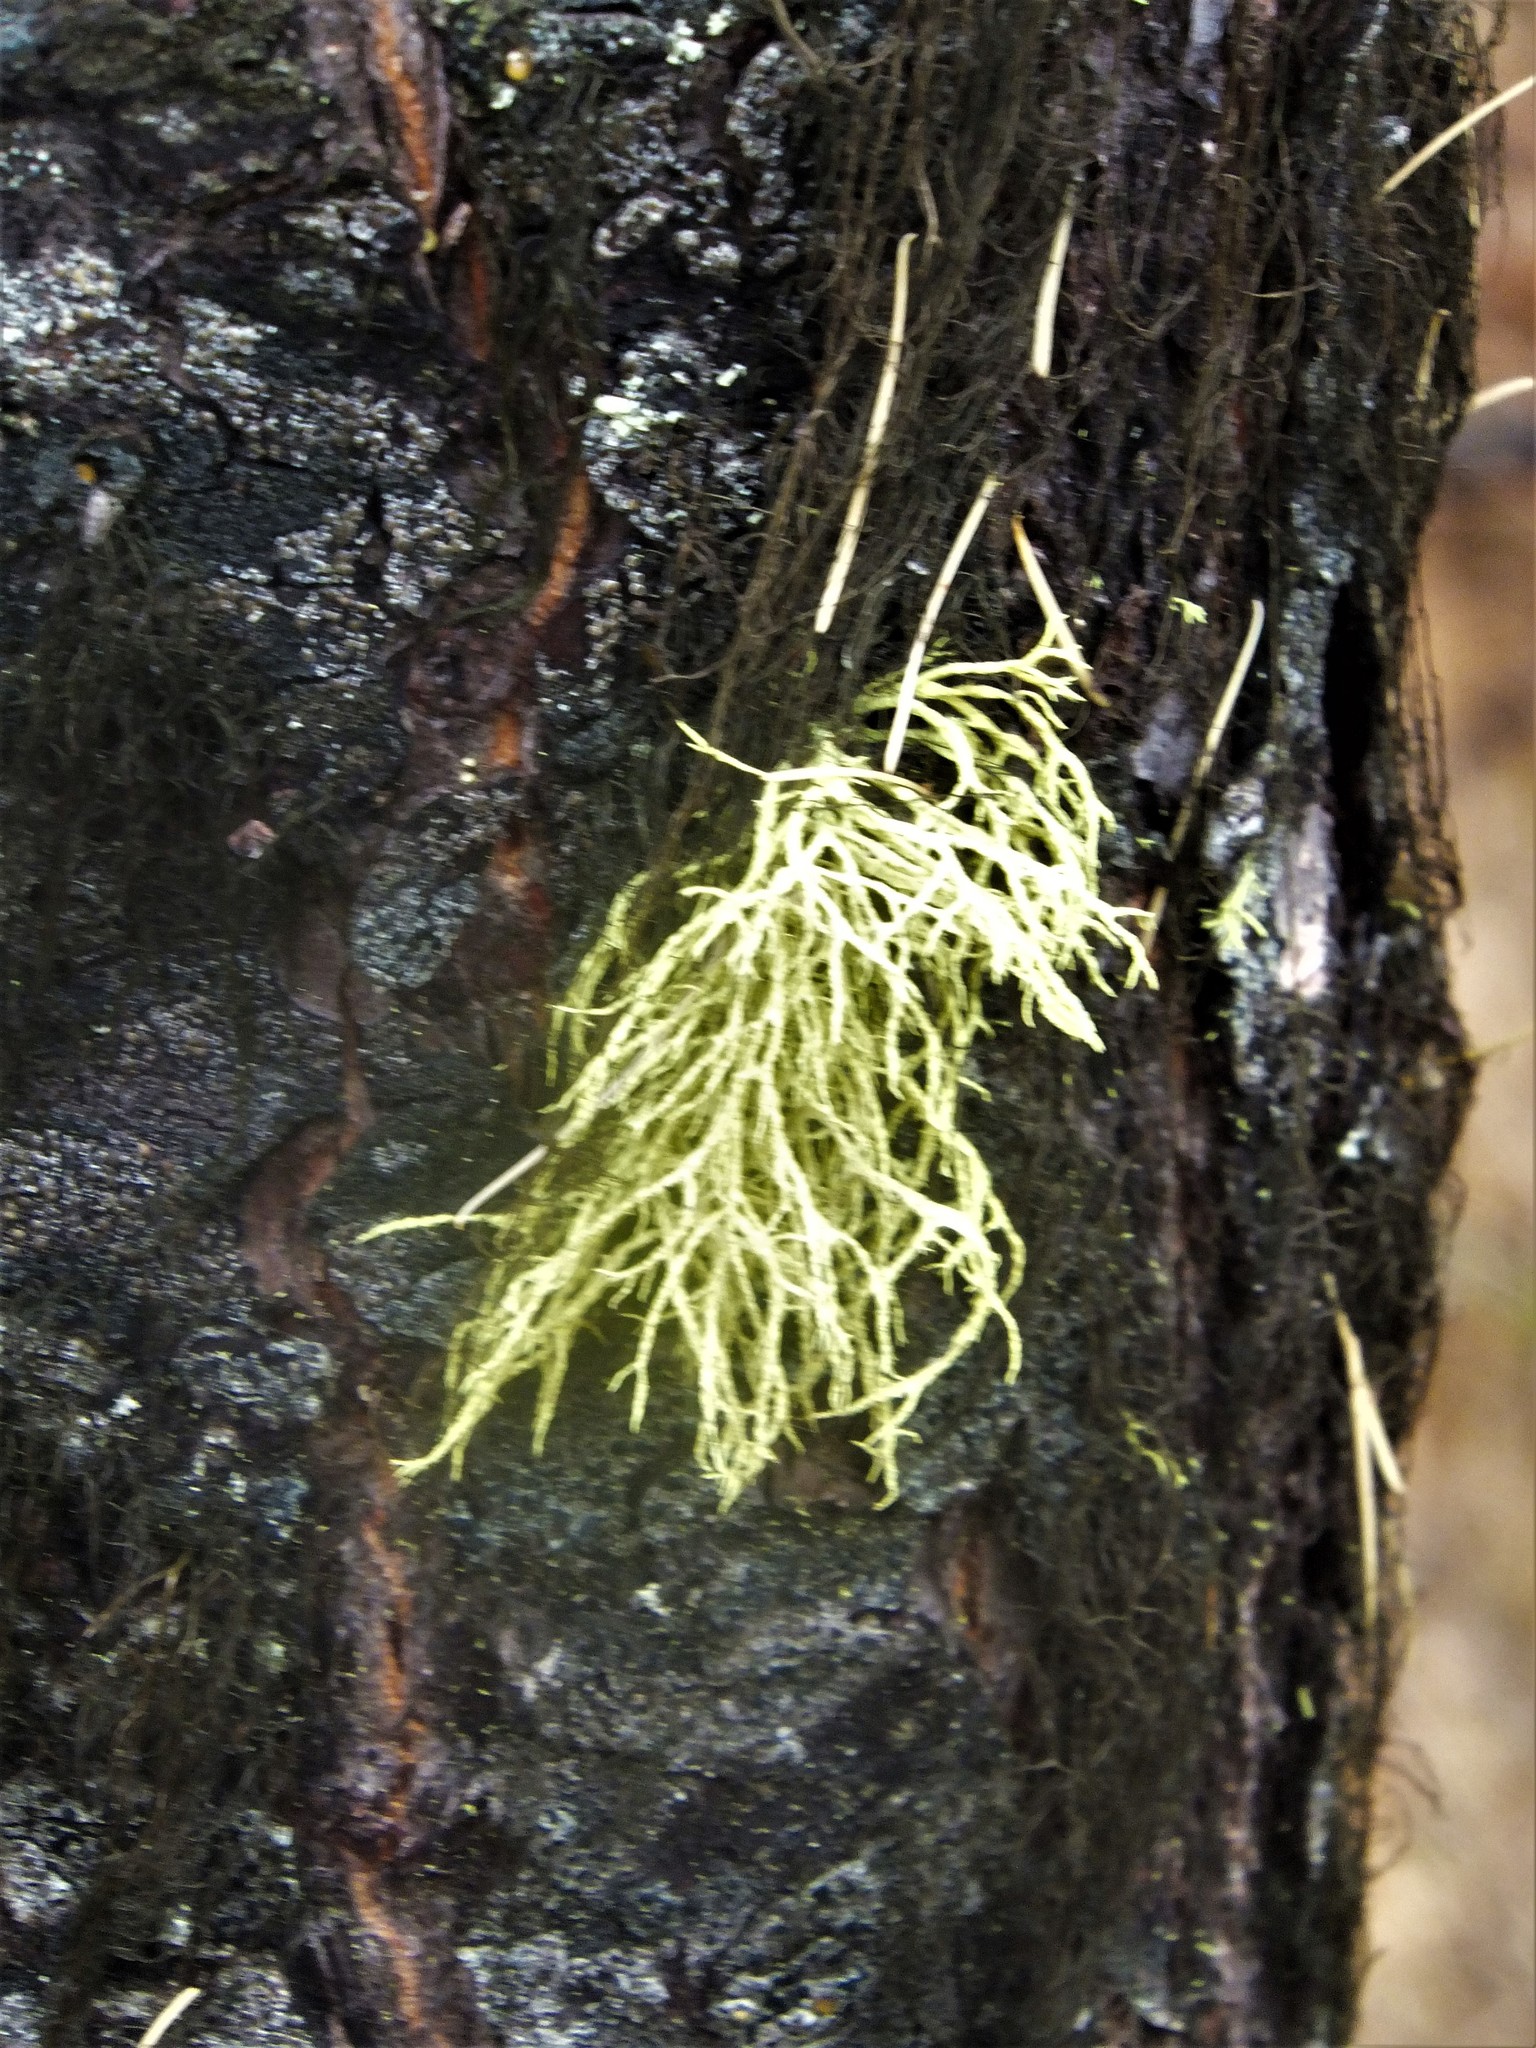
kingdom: Fungi
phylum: Ascomycota
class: Lecanoromycetes
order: Lecanorales
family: Parmeliaceae
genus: Letharia
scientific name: Letharia vulpina
